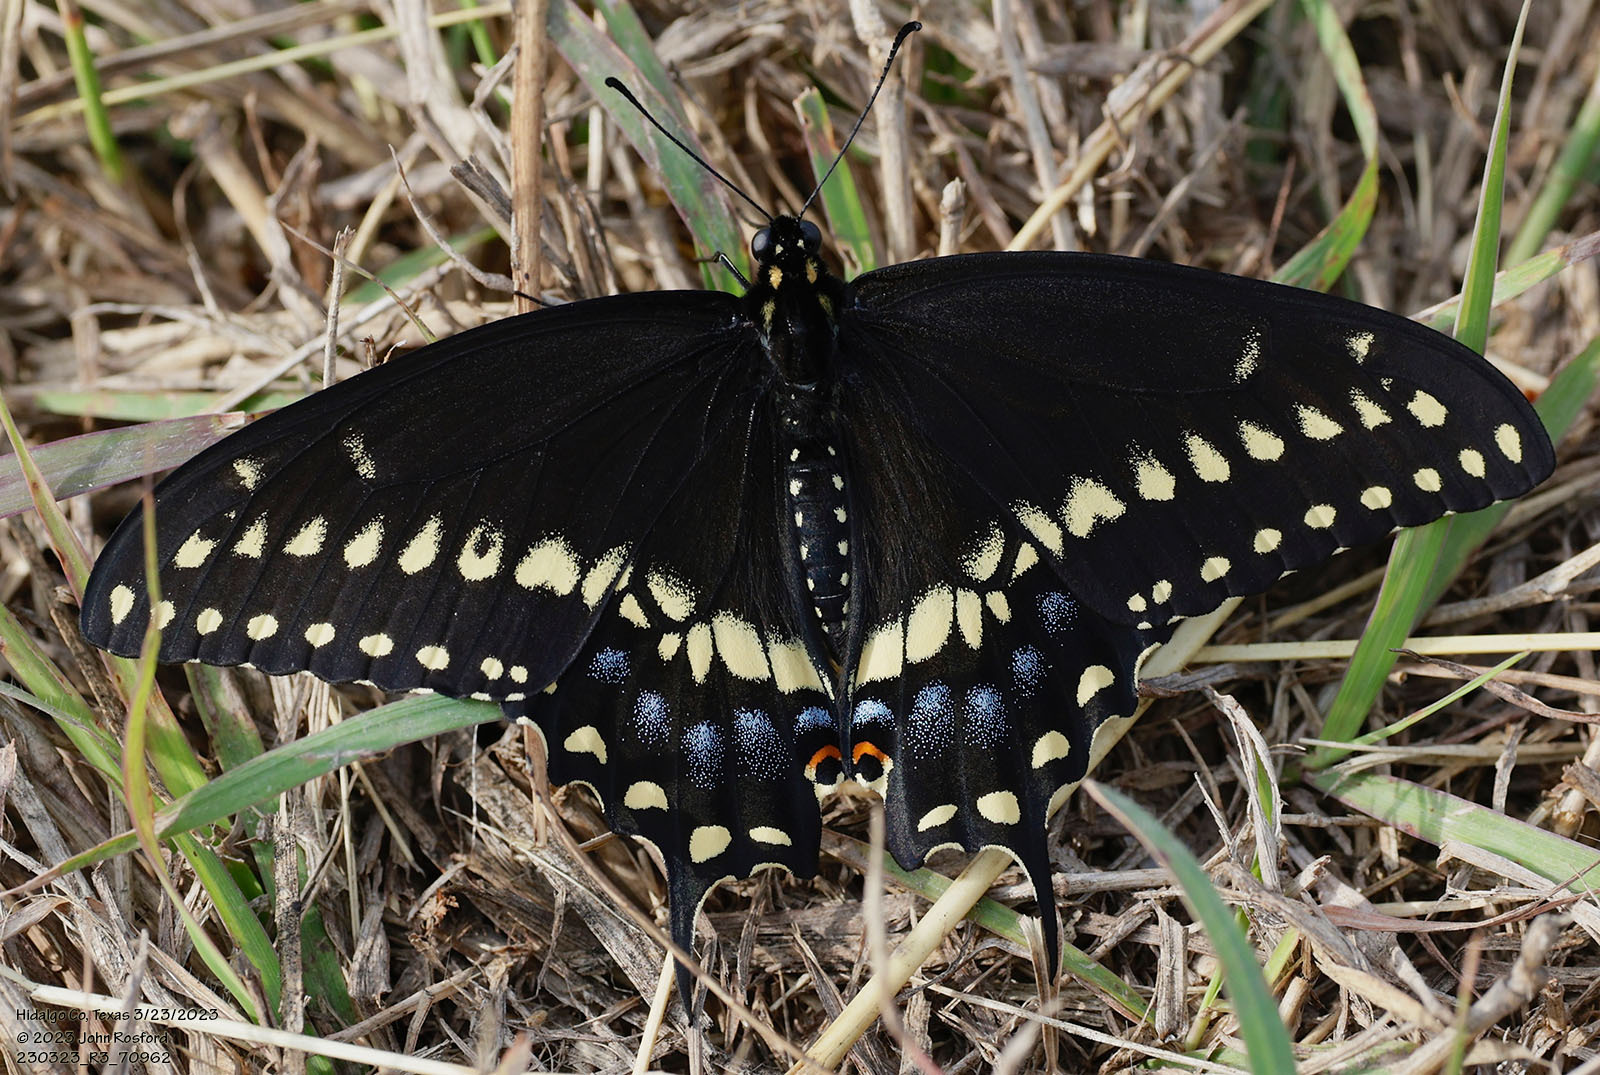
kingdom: Animalia
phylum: Arthropoda
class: Insecta
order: Lepidoptera
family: Papilionidae
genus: Papilio
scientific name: Papilio polyxenes
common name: Black swallowtail
